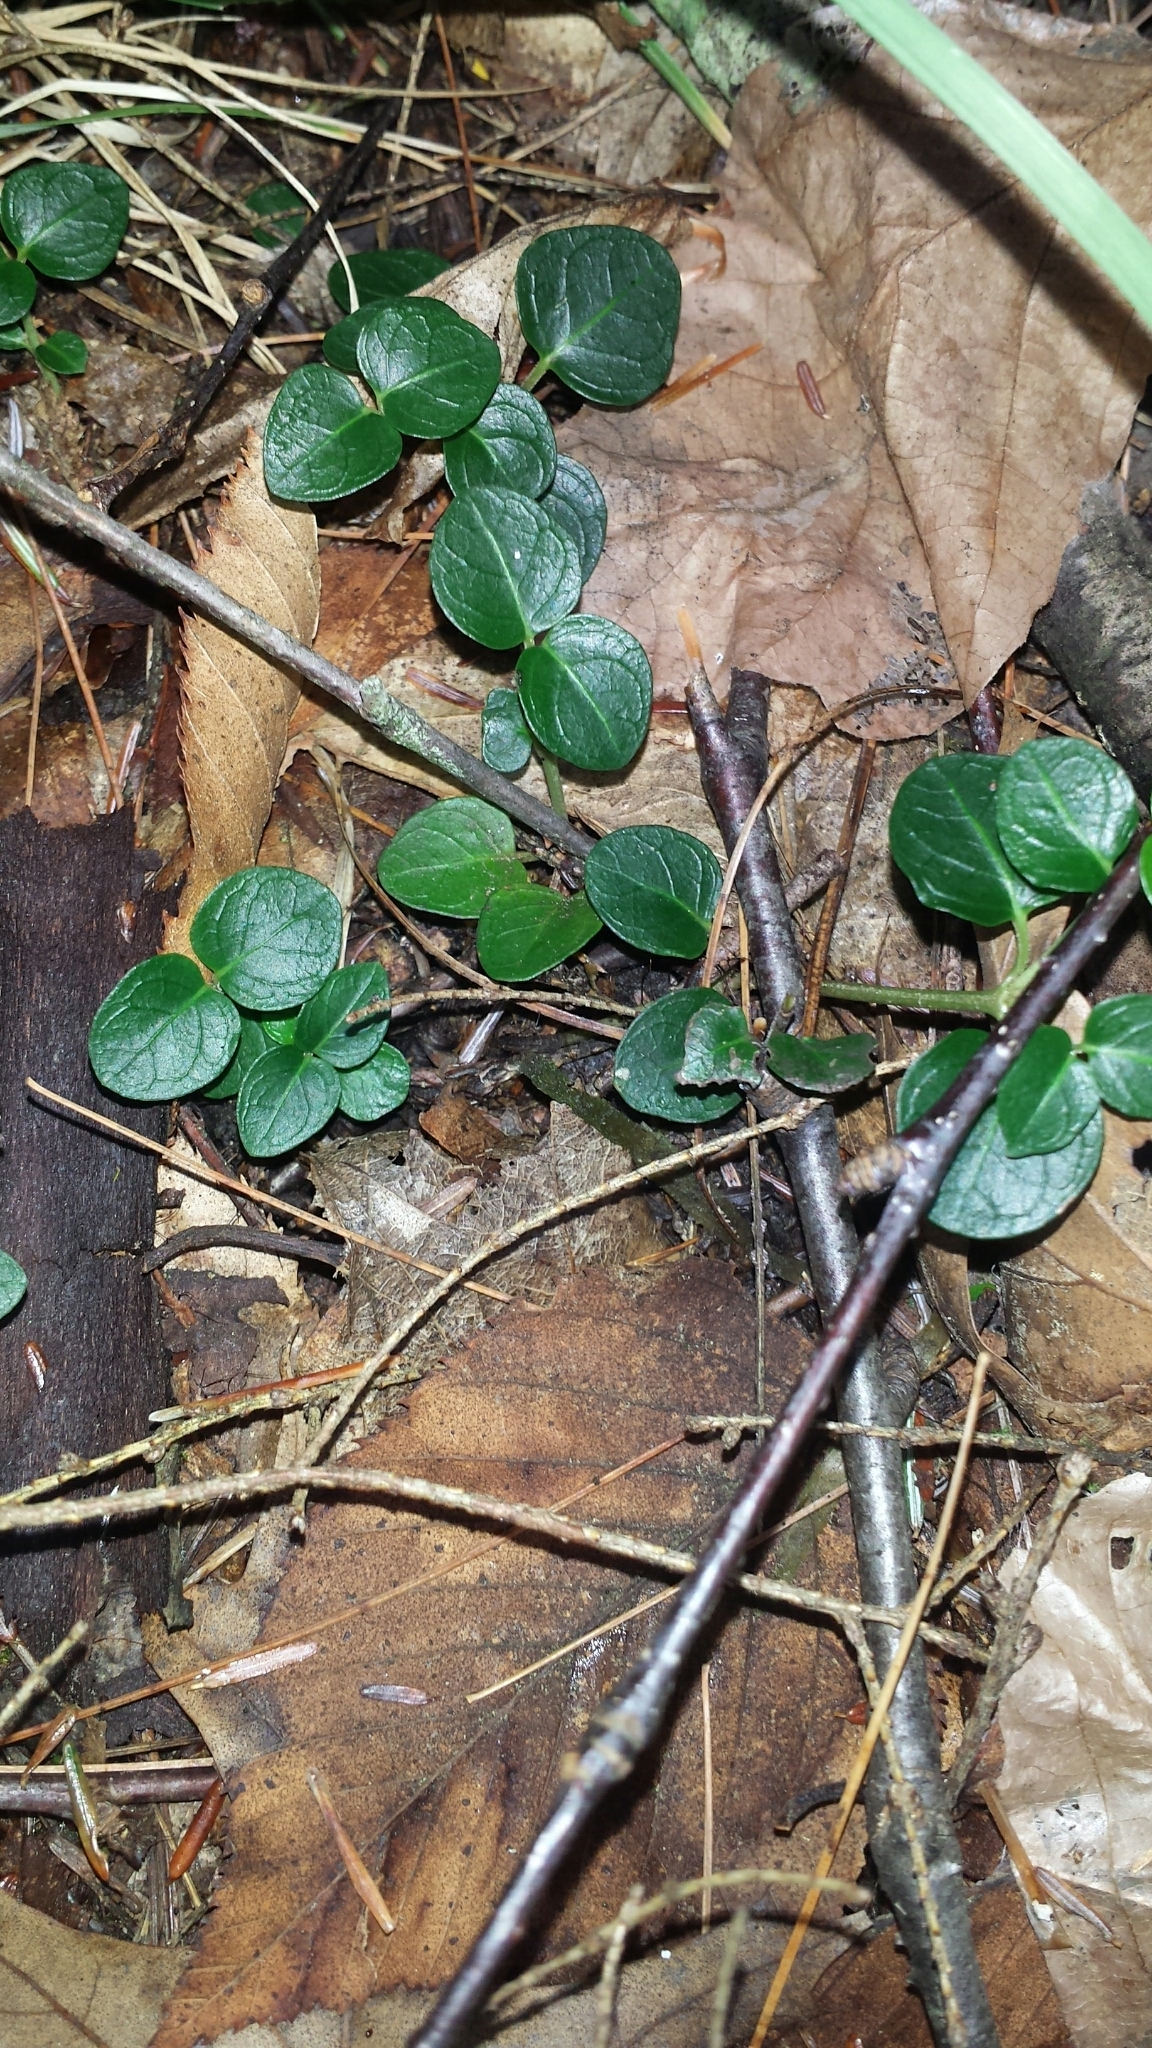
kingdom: Plantae
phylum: Tracheophyta
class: Magnoliopsida
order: Gentianales
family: Rubiaceae
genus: Mitchella
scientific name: Mitchella repens
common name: Partridge-berry
